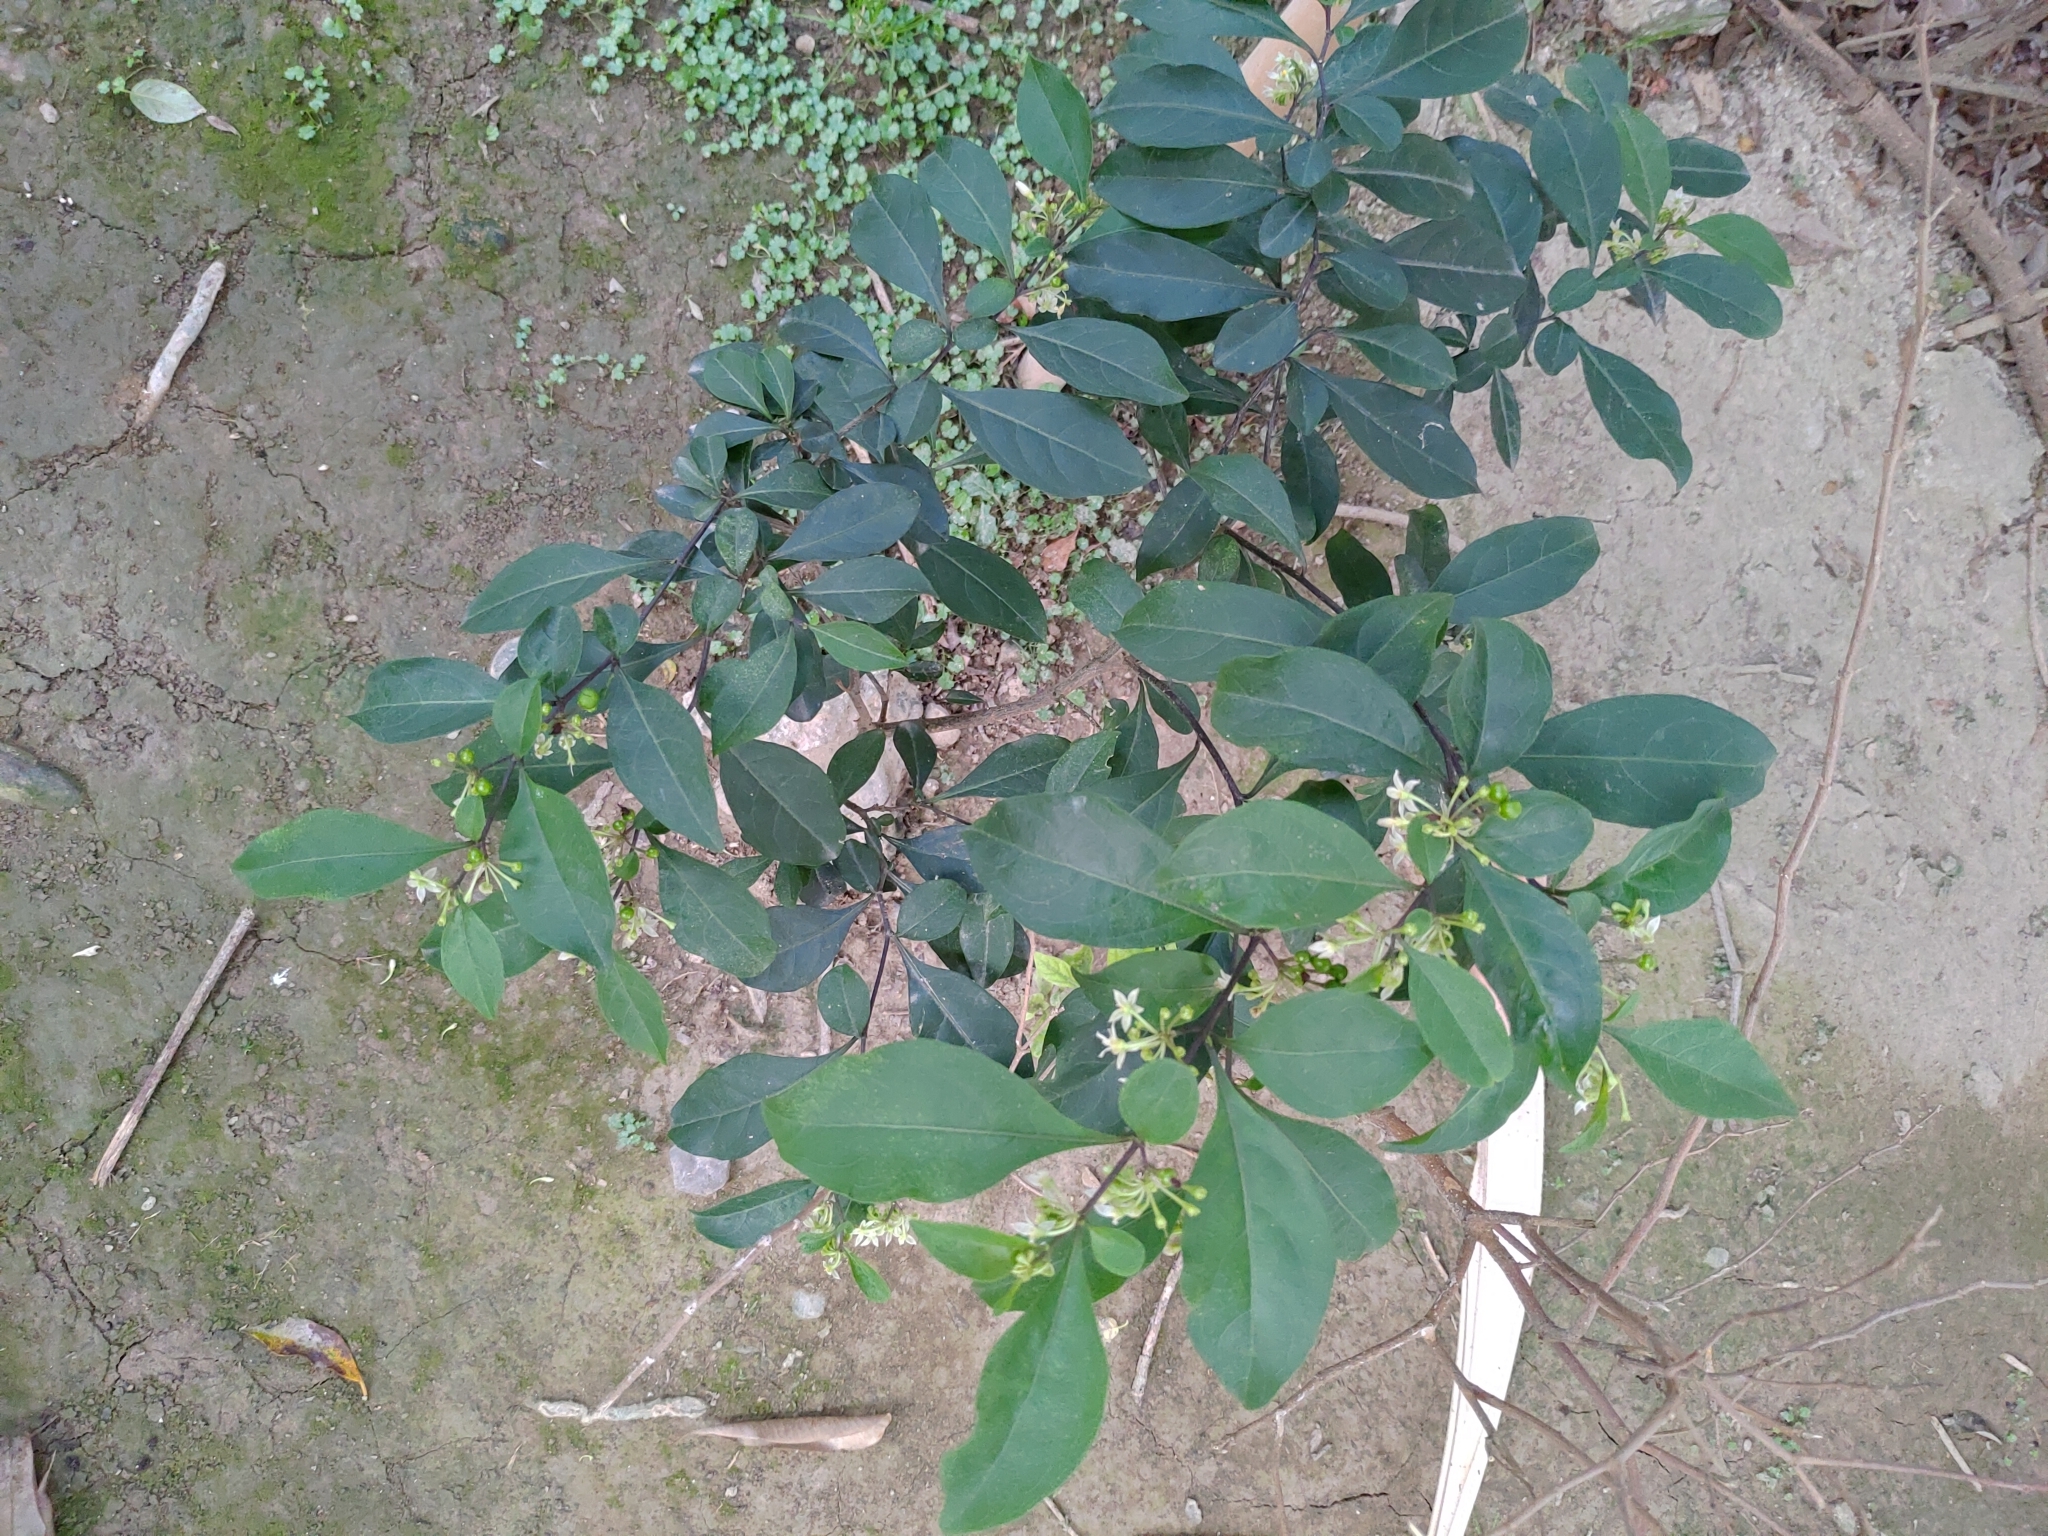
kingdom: Plantae
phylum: Tracheophyta
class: Magnoliopsida
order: Solanales
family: Solanaceae
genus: Solanum
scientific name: Solanum diphyllum
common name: Twoleaf nightshade
